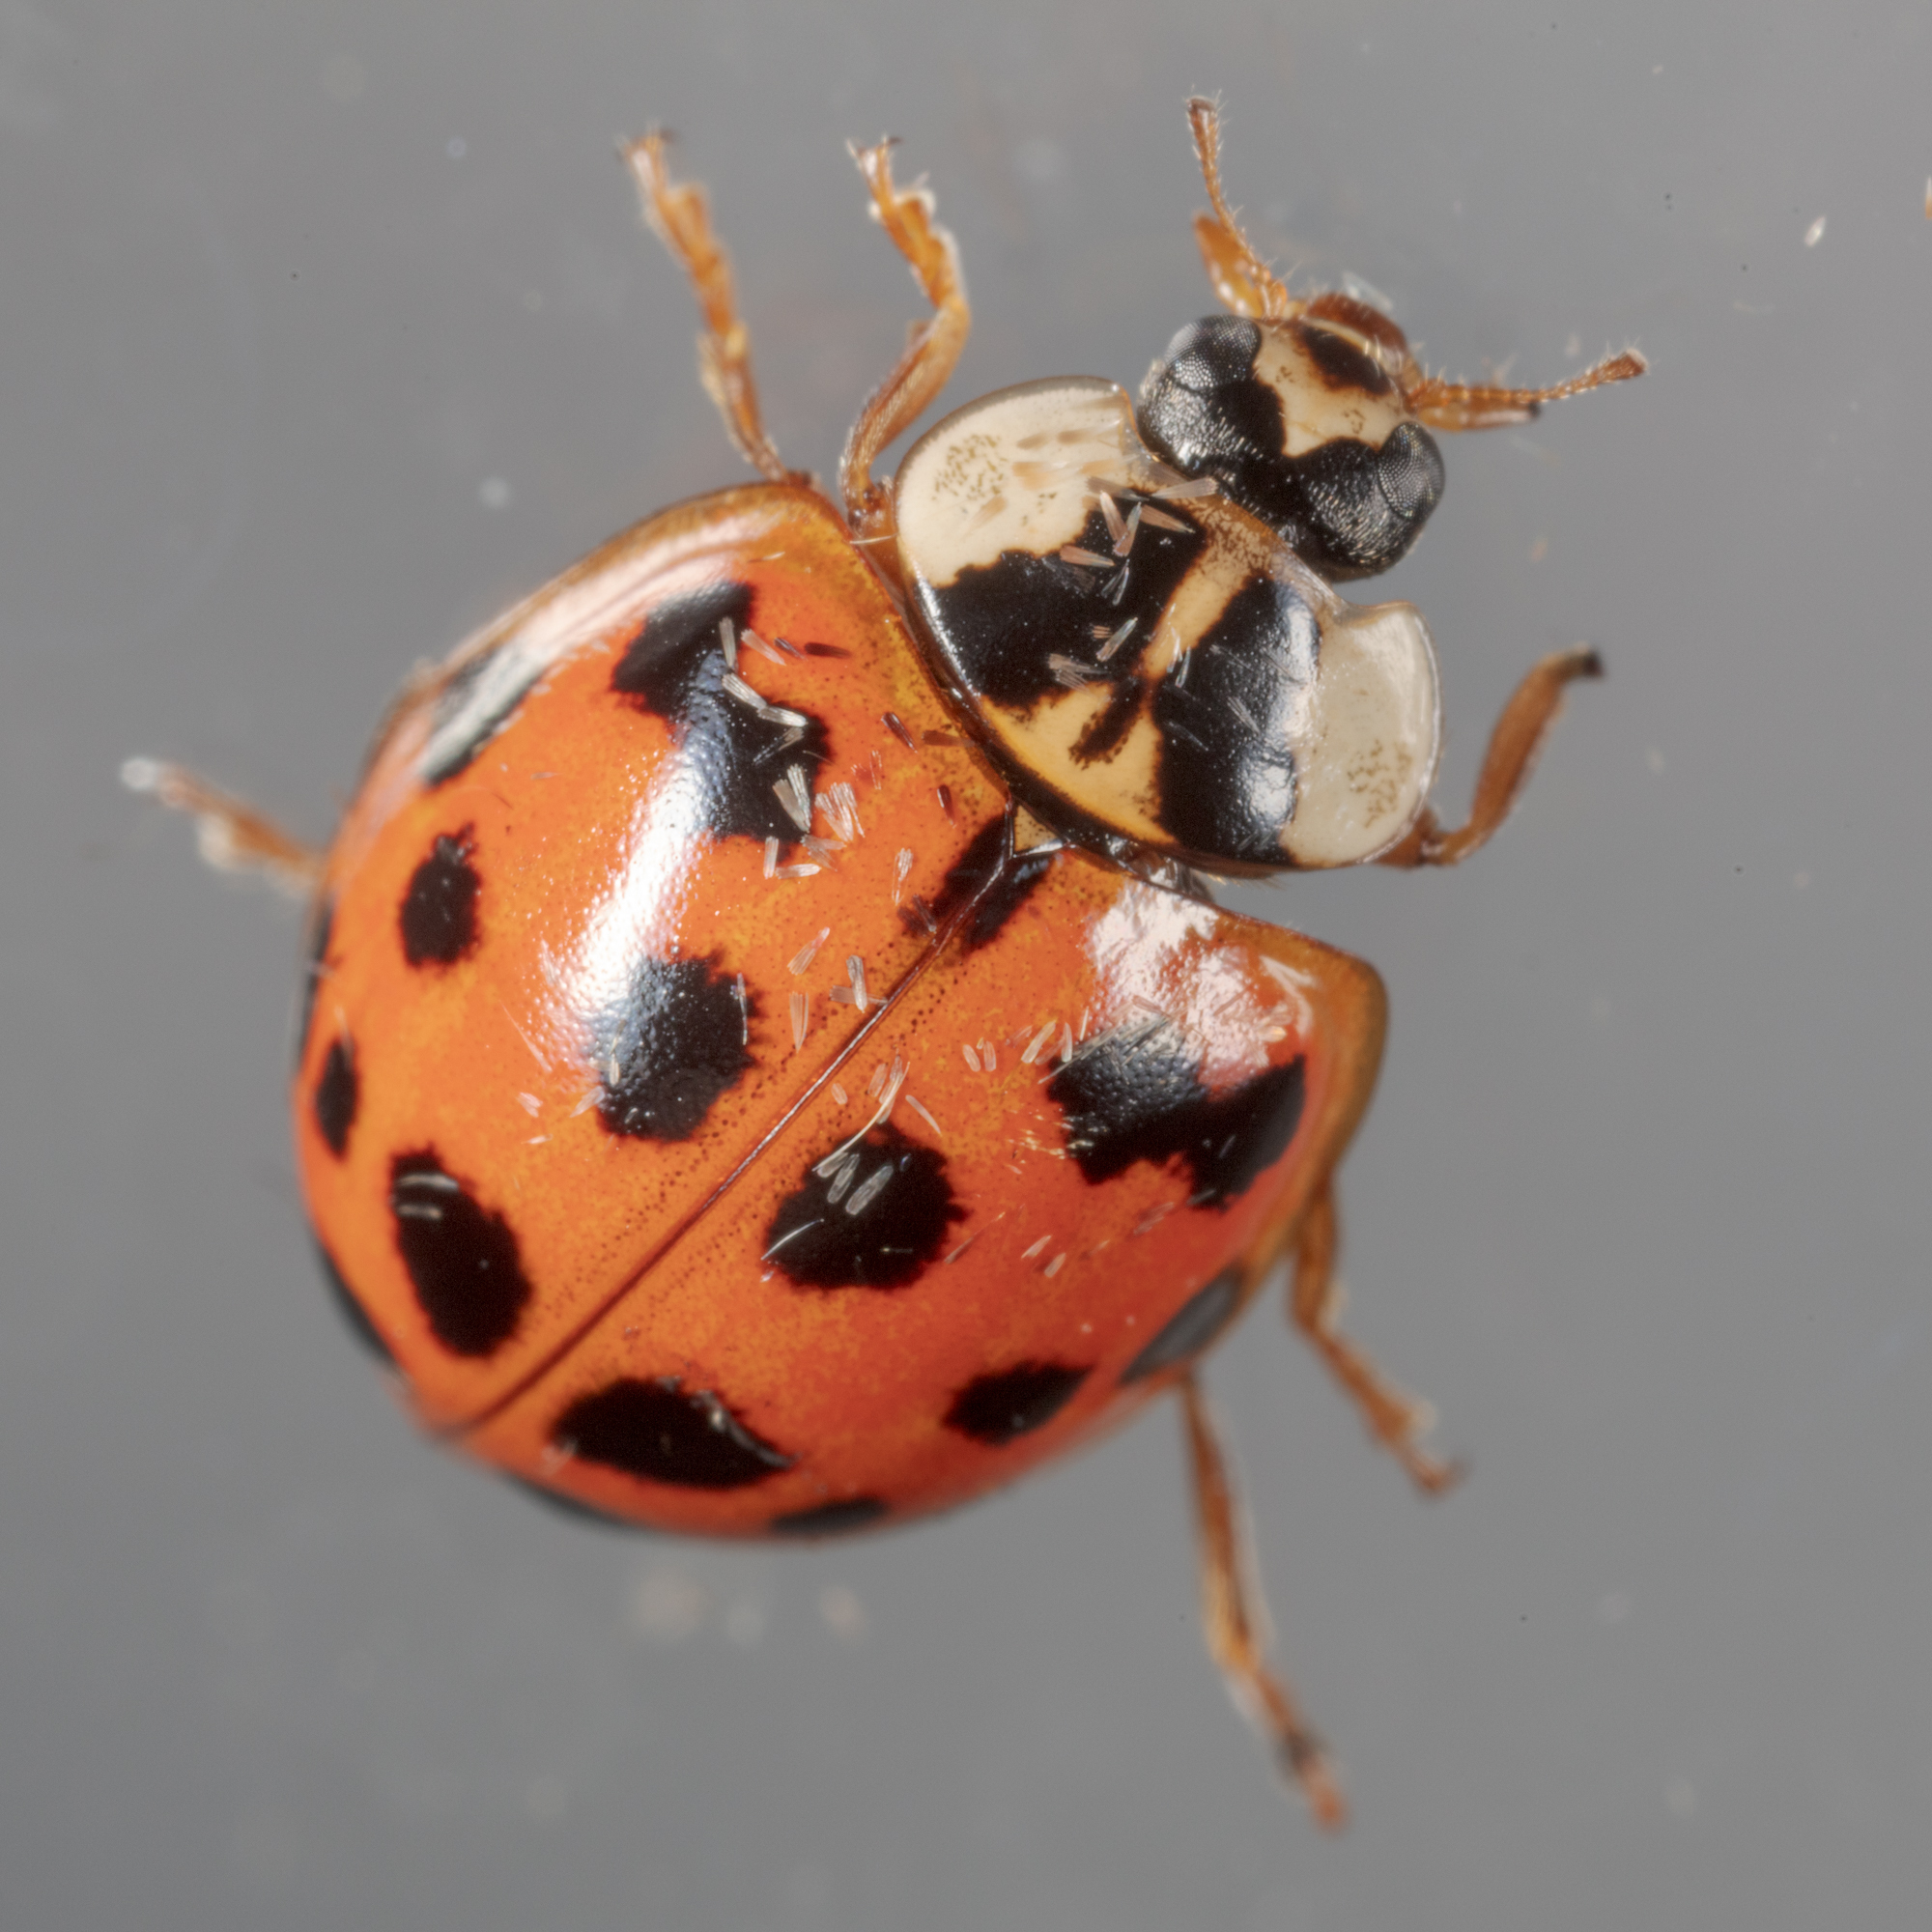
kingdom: Animalia
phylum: Arthropoda
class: Insecta
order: Coleoptera
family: Coccinellidae
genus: Harmonia
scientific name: Harmonia axyridis
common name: Harlequin ladybird
